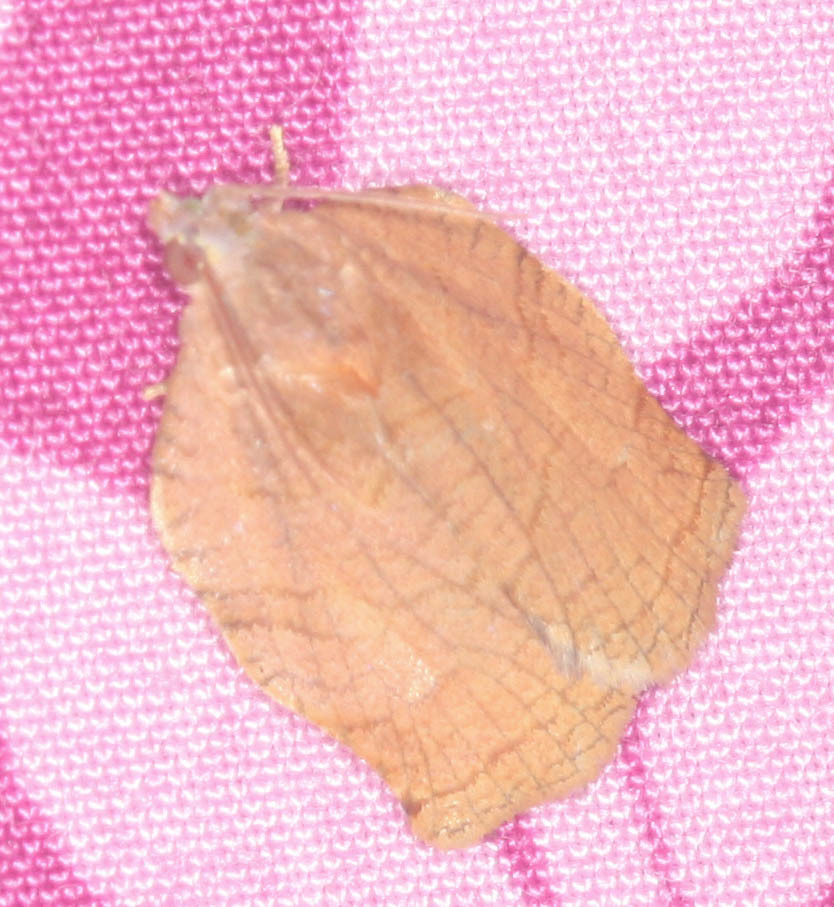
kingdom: Animalia
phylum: Arthropoda
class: Insecta
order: Lepidoptera
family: Tortricidae
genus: Archips
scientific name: Archips purpurana
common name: Omnivorous leafroller
